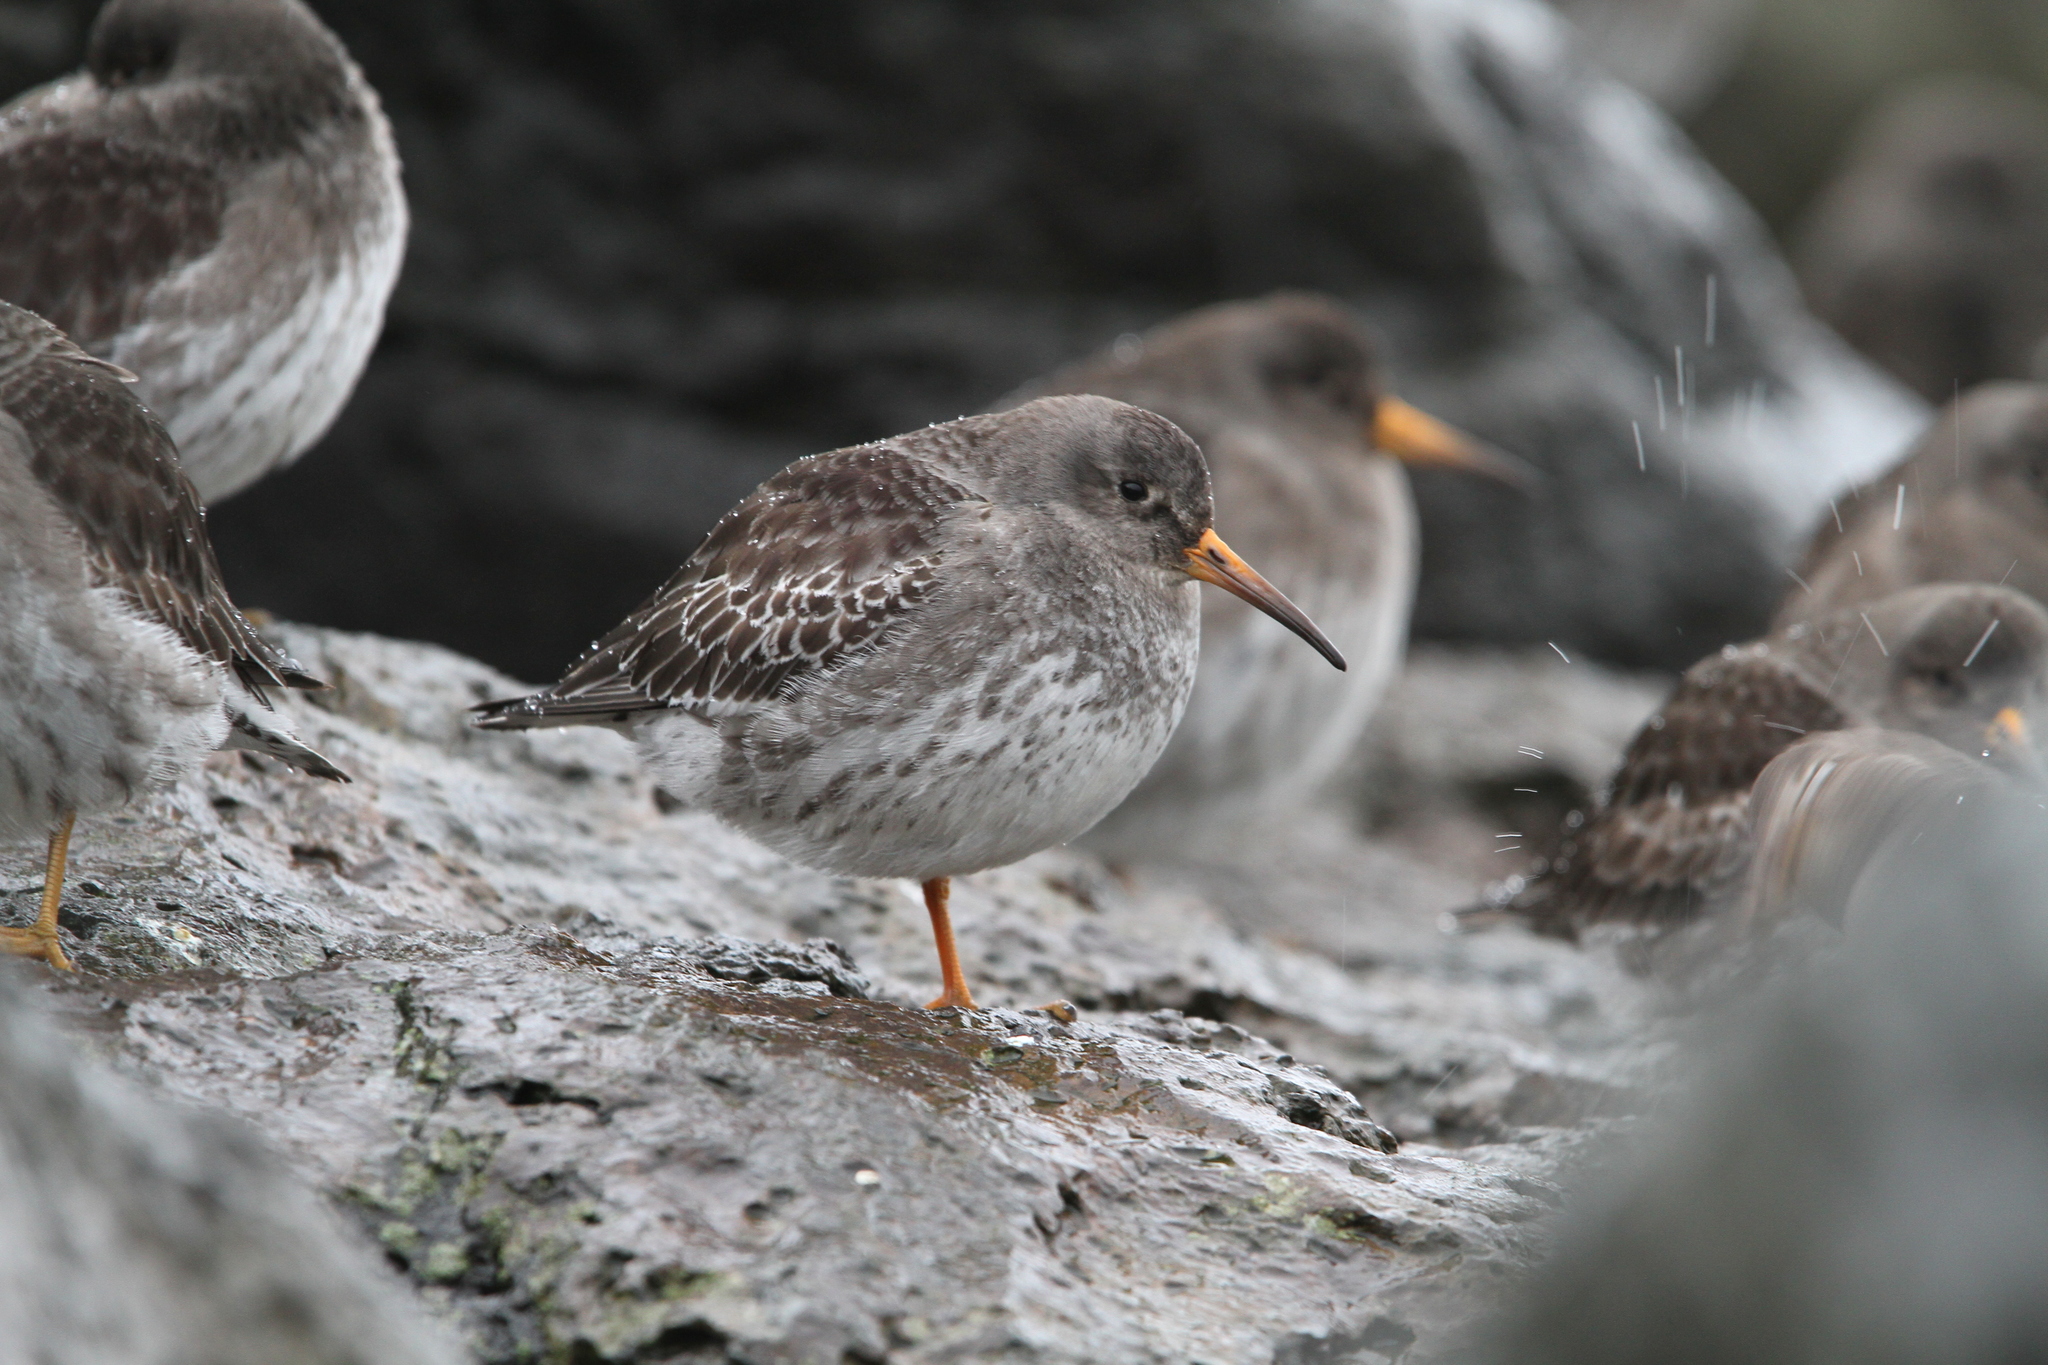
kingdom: Animalia
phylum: Chordata
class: Aves
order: Charadriiformes
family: Scolopacidae
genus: Calidris
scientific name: Calidris maritima
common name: Purple sandpiper
